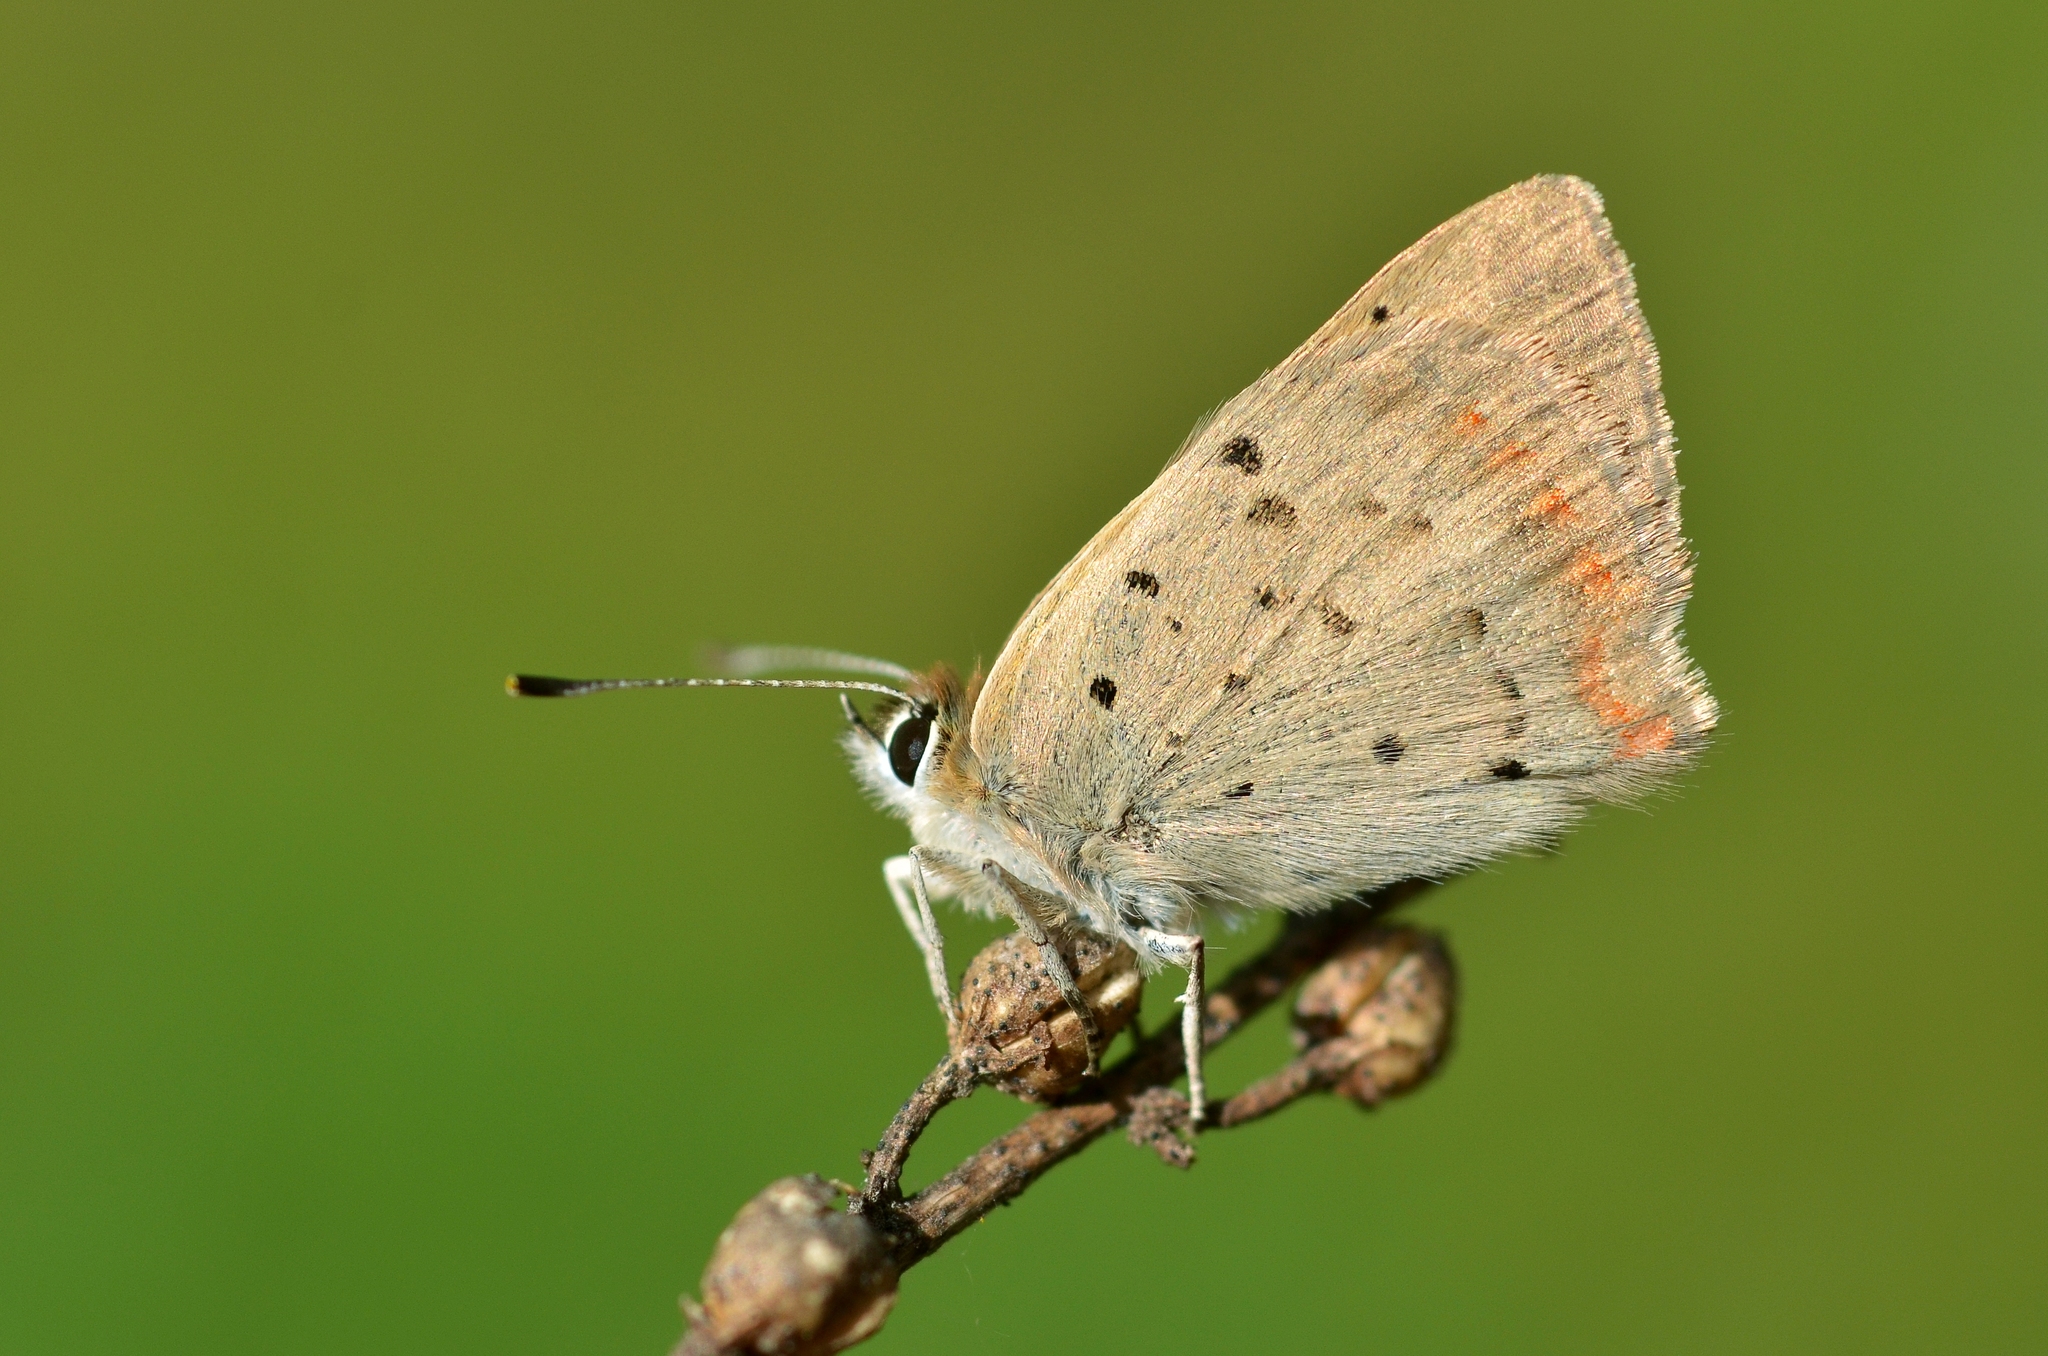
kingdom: Animalia
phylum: Arthropoda
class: Insecta
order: Lepidoptera
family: Lycaenidae
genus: Lycaena
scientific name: Lycaena phlaeas
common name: Small copper
